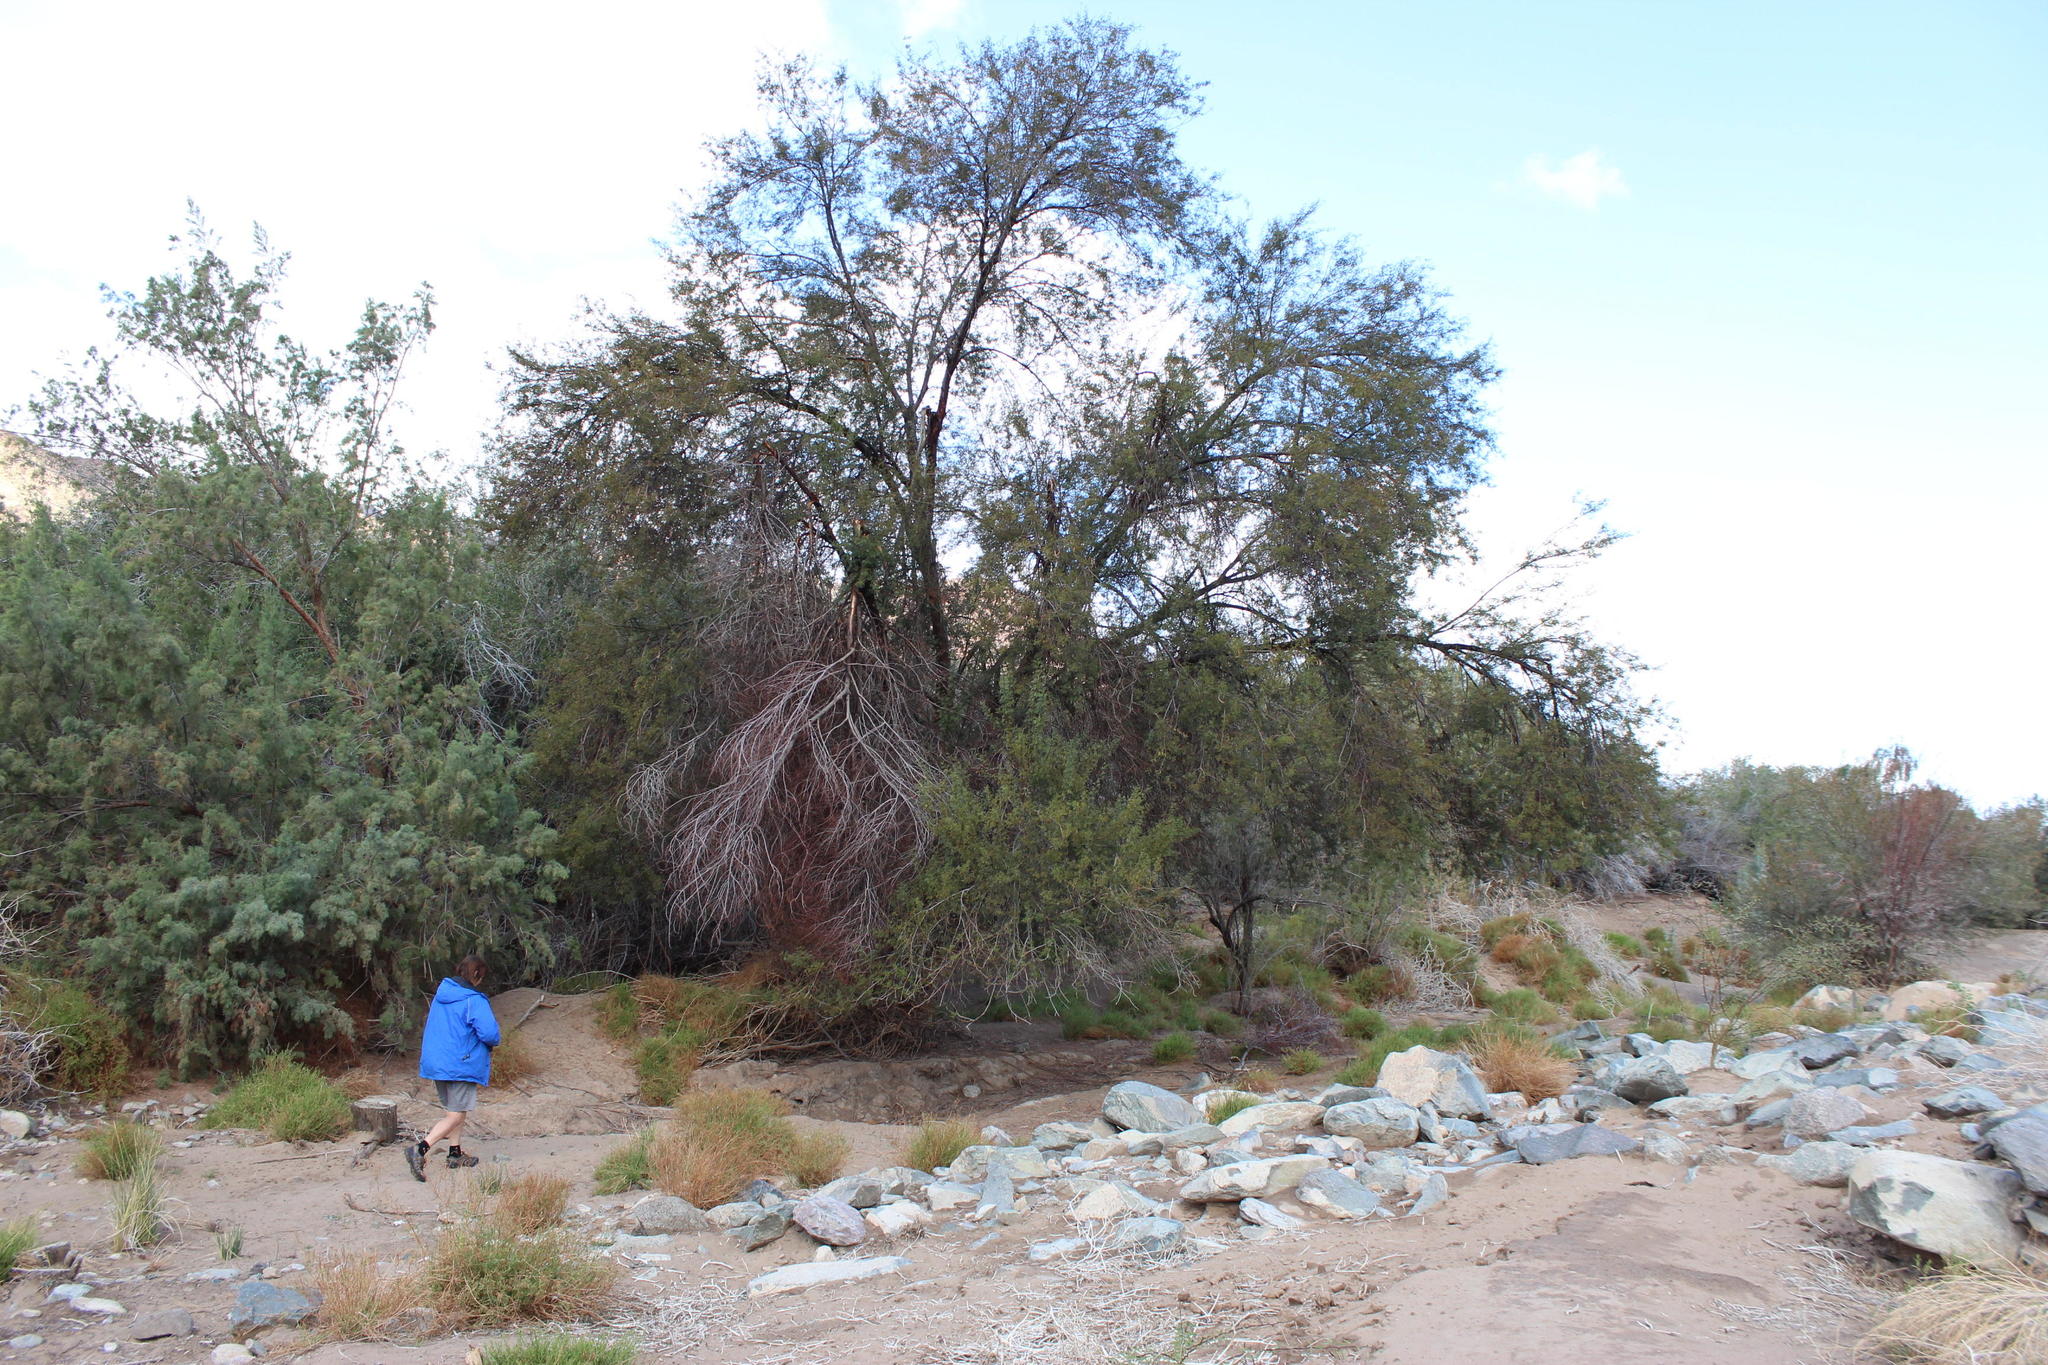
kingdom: Plantae
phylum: Tracheophyta
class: Magnoliopsida
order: Fabales
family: Fabaceae
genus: Vachellia
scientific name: Vachellia karroo
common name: Sweet thorn
